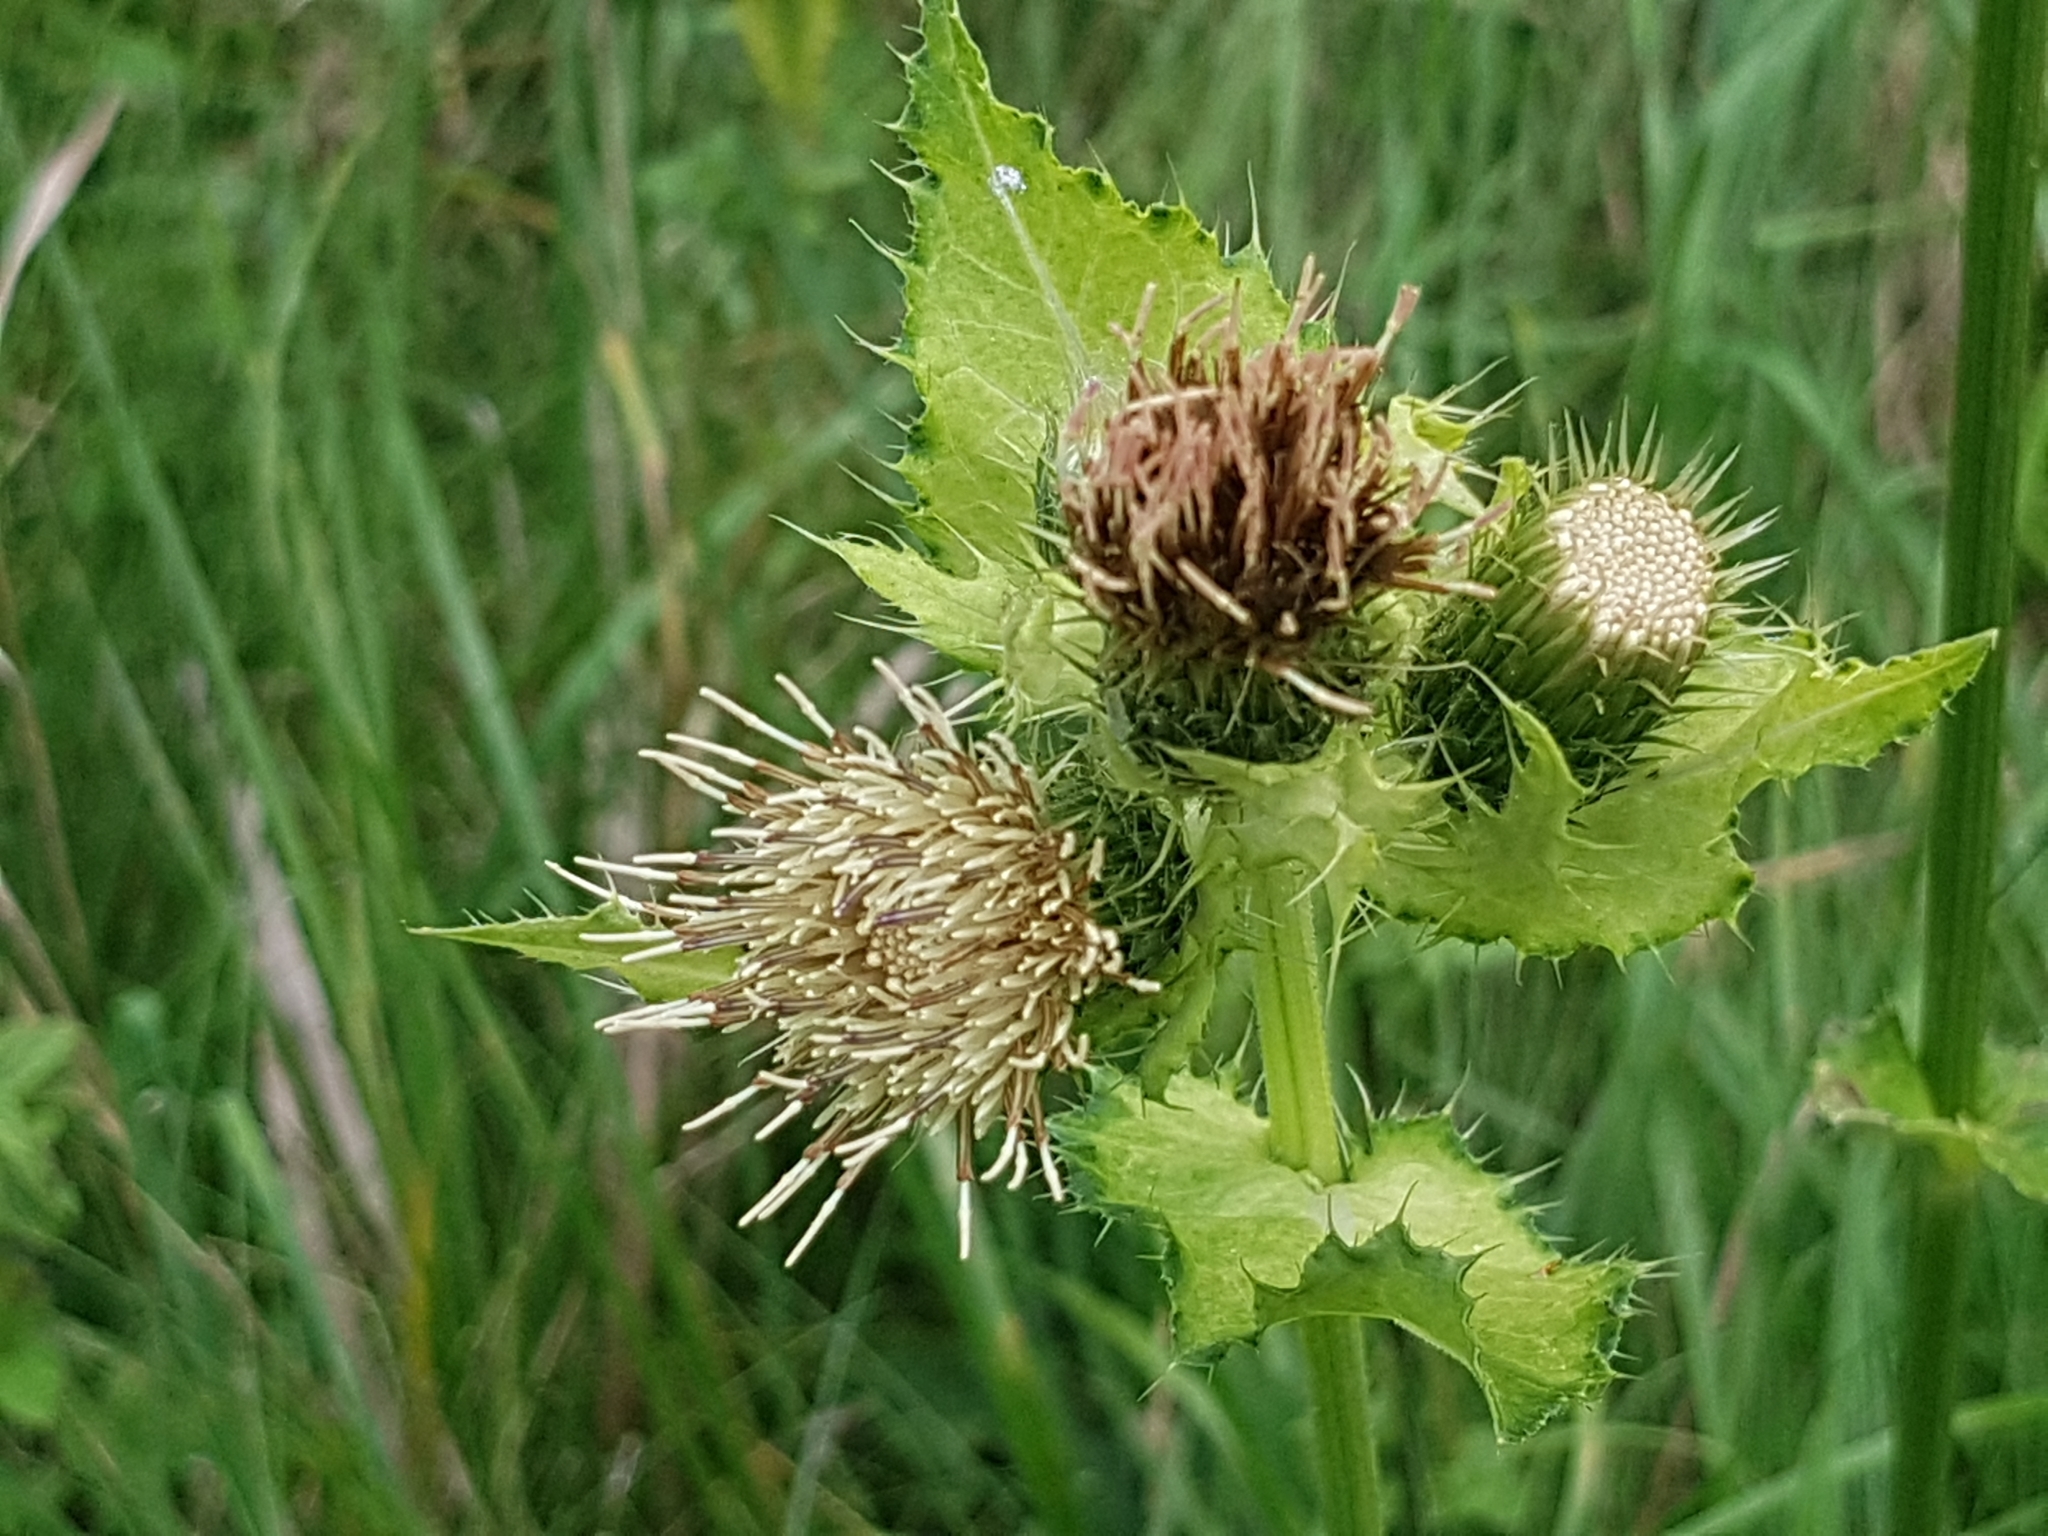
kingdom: Plantae
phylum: Tracheophyta
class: Magnoliopsida
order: Asterales
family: Asteraceae
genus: Cirsium
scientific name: Cirsium oleraceum
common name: Cabbage thistle
